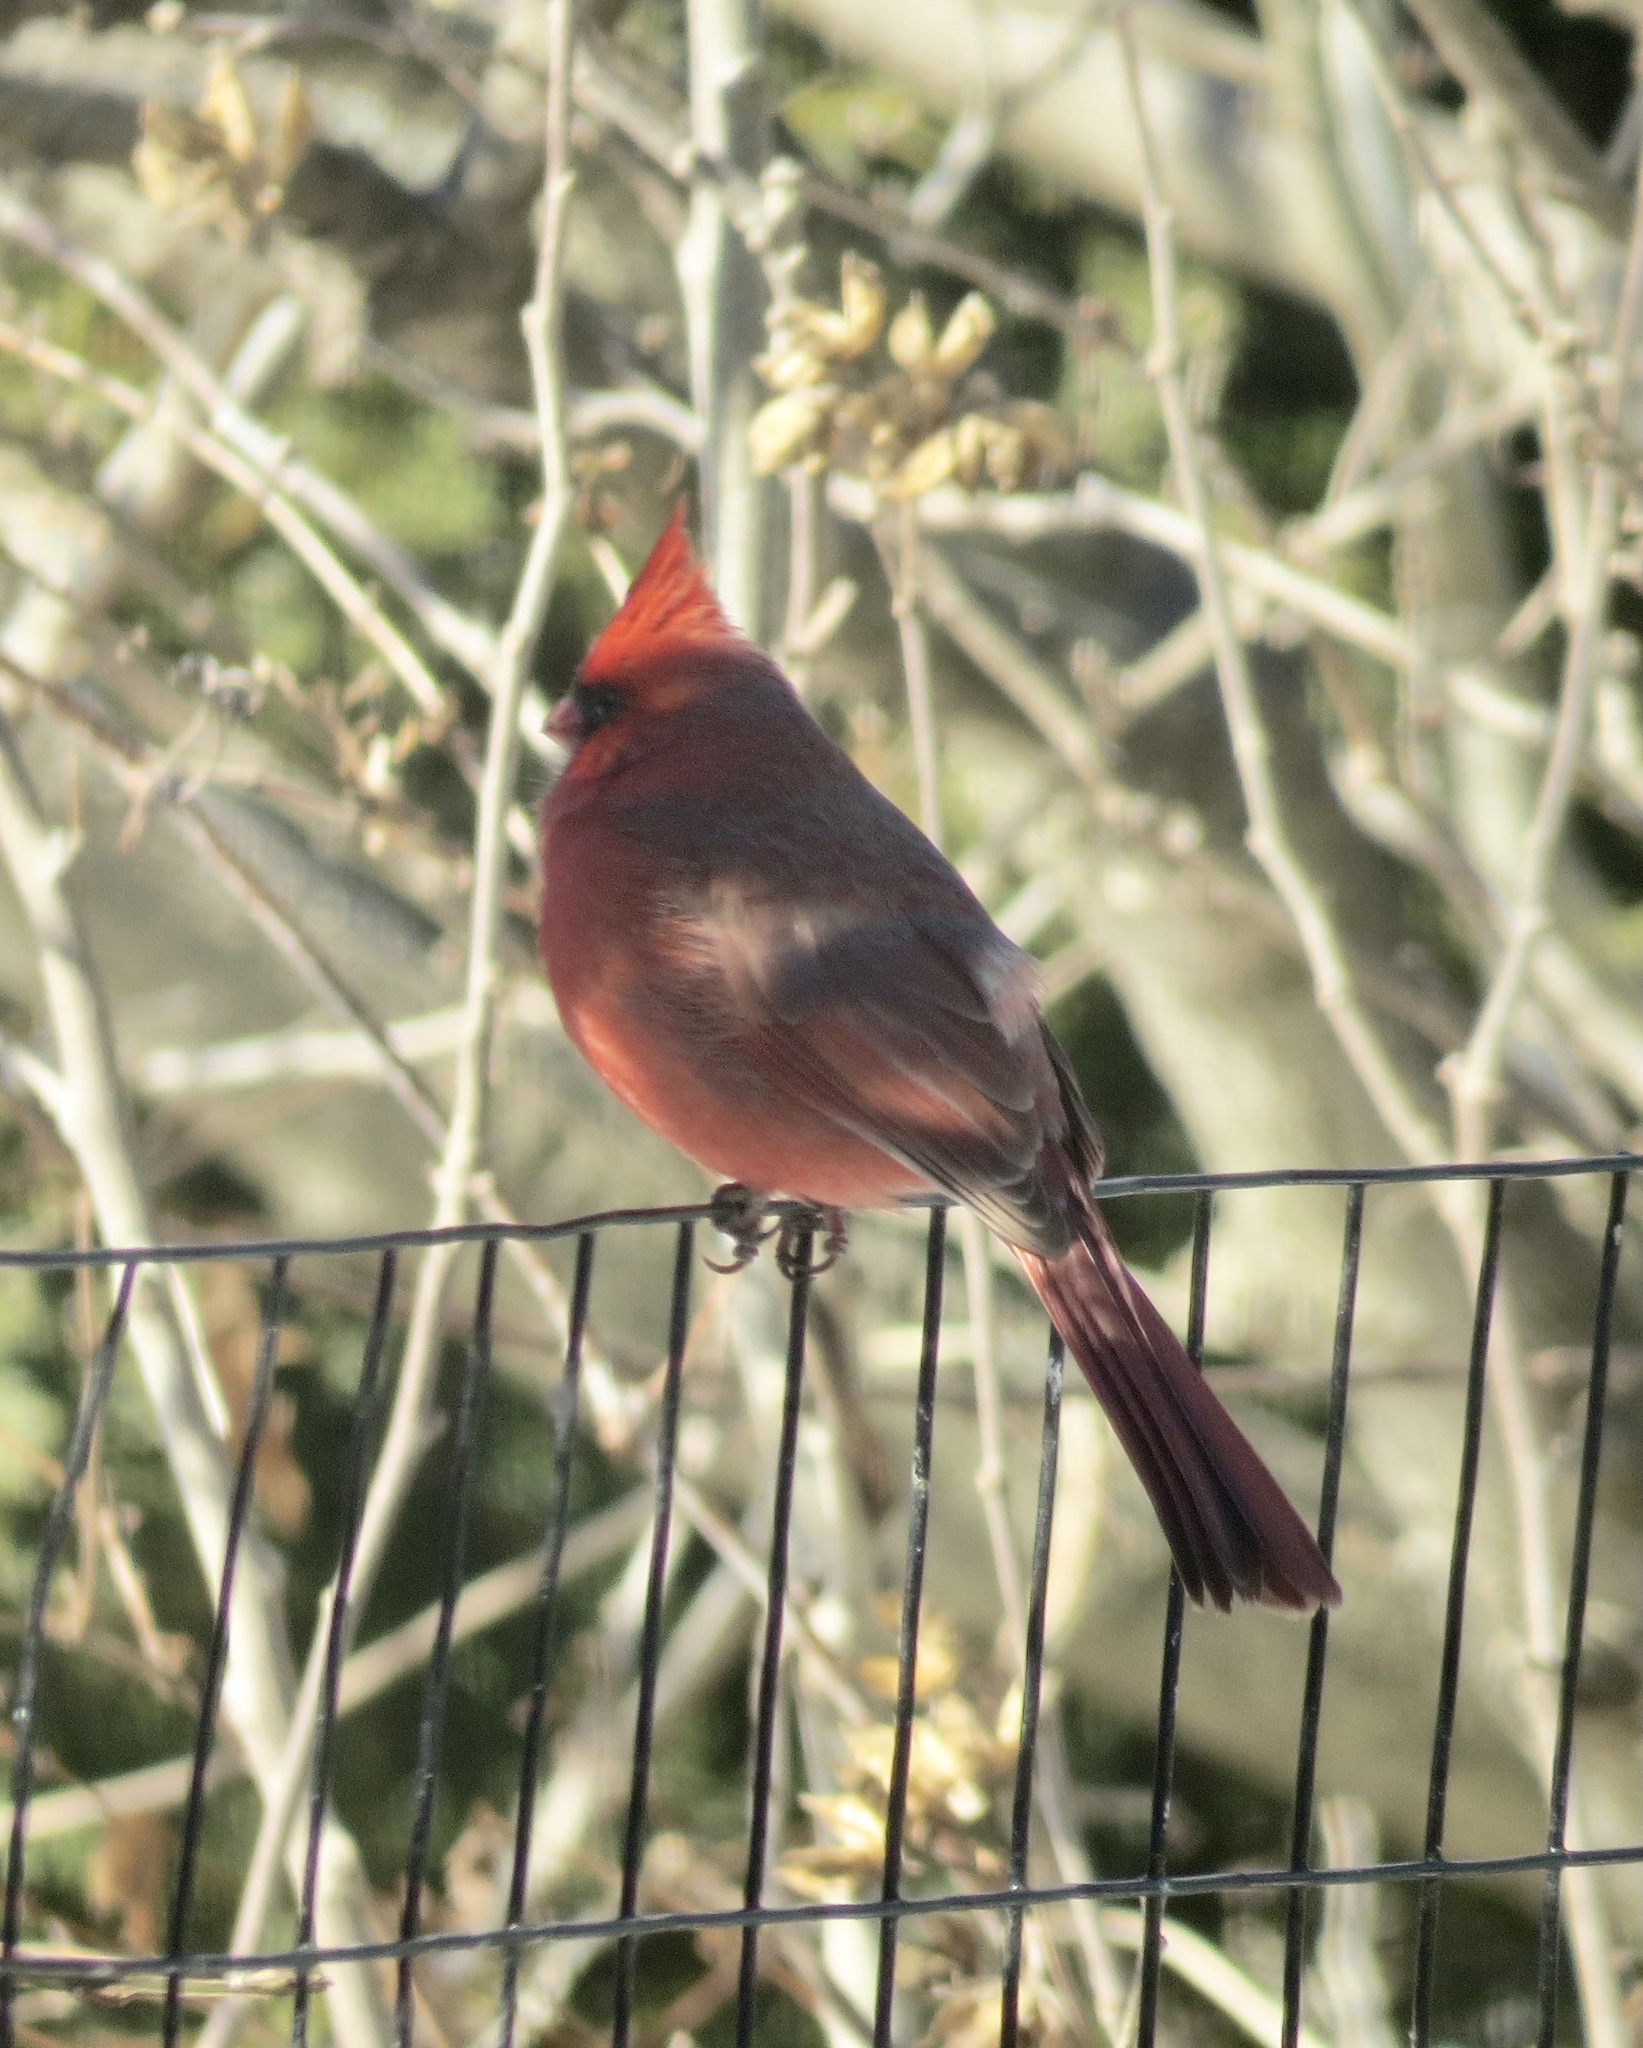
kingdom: Animalia
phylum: Chordata
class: Aves
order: Passeriformes
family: Cardinalidae
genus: Cardinalis
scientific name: Cardinalis cardinalis
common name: Northern cardinal
